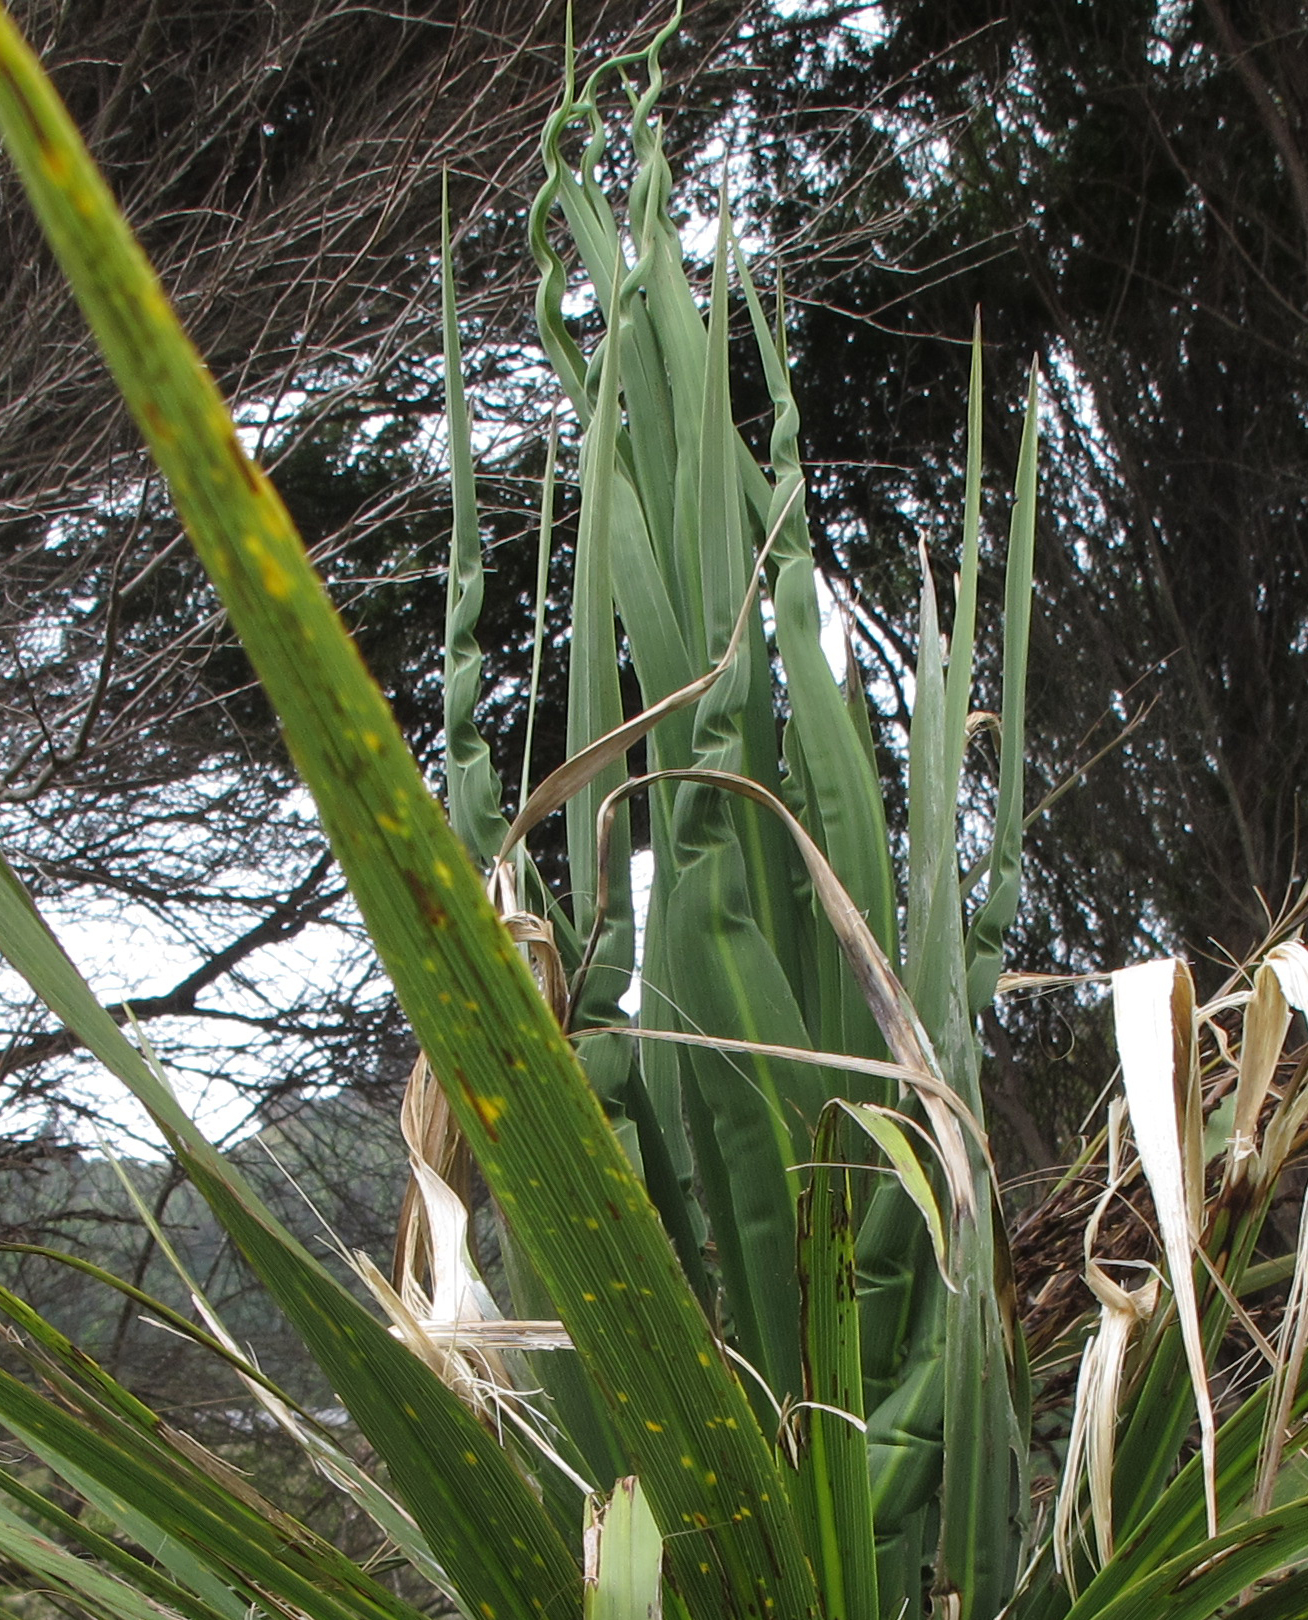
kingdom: Plantae
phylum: Tracheophyta
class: Liliopsida
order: Asparagales
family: Asparagaceae
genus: Cordyline
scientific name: Cordyline australis
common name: Cabbage-palm
